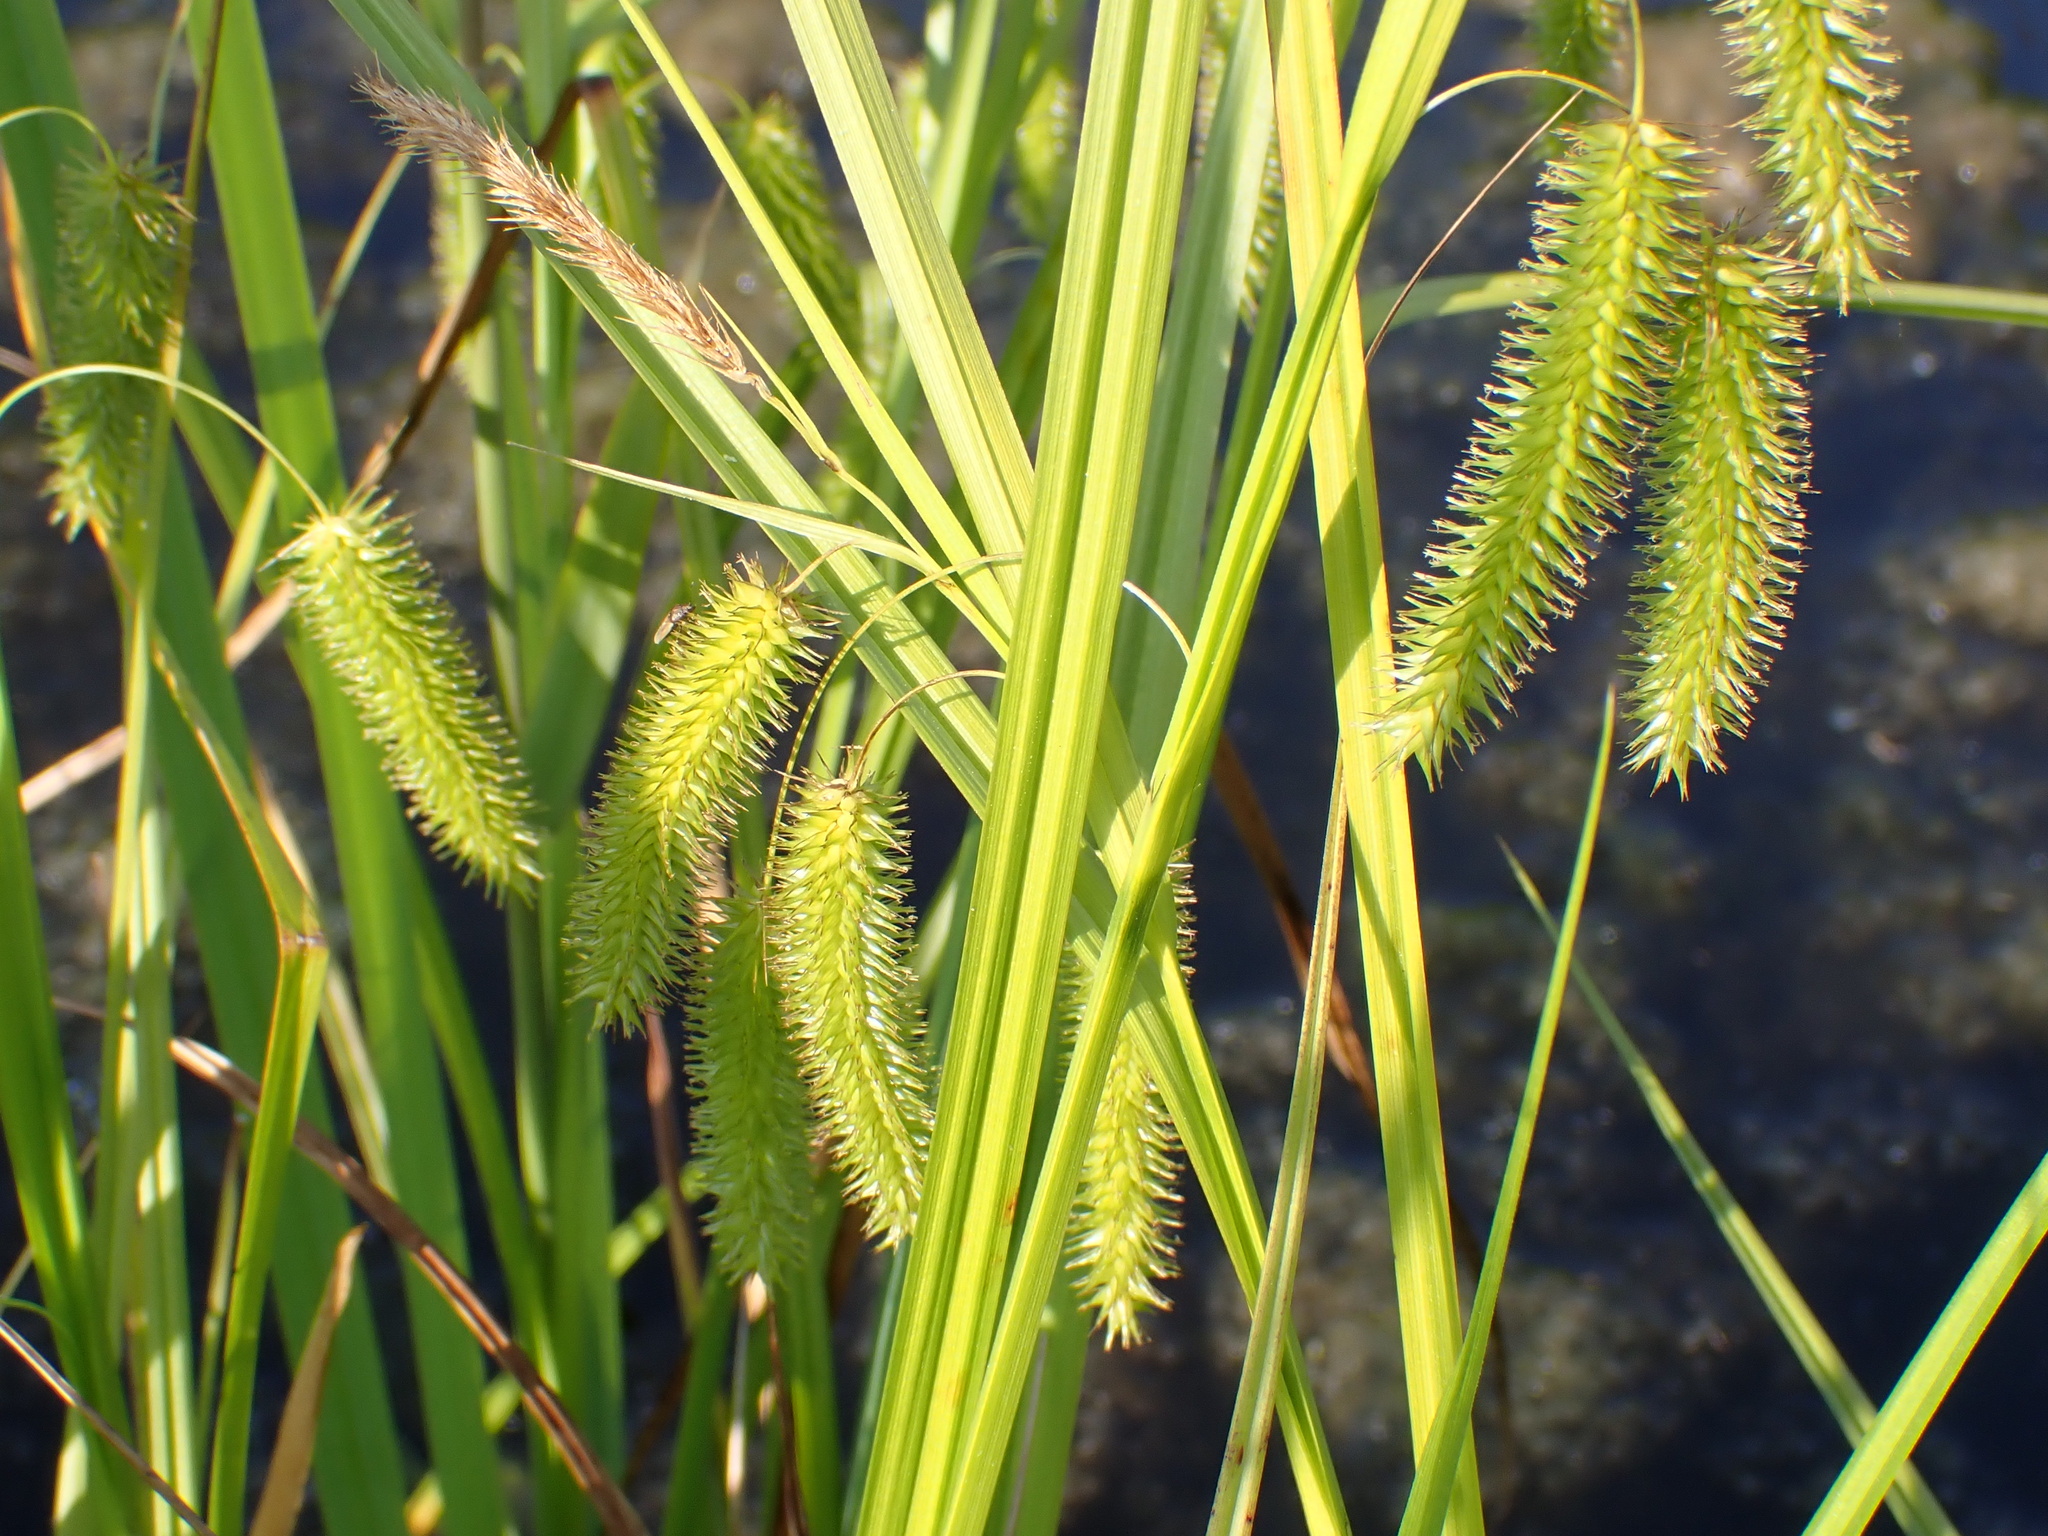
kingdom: Plantae
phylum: Tracheophyta
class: Liliopsida
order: Poales
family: Cyperaceae
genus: Carex
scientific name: Carex pseudocyperus
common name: Cyperus sedge
